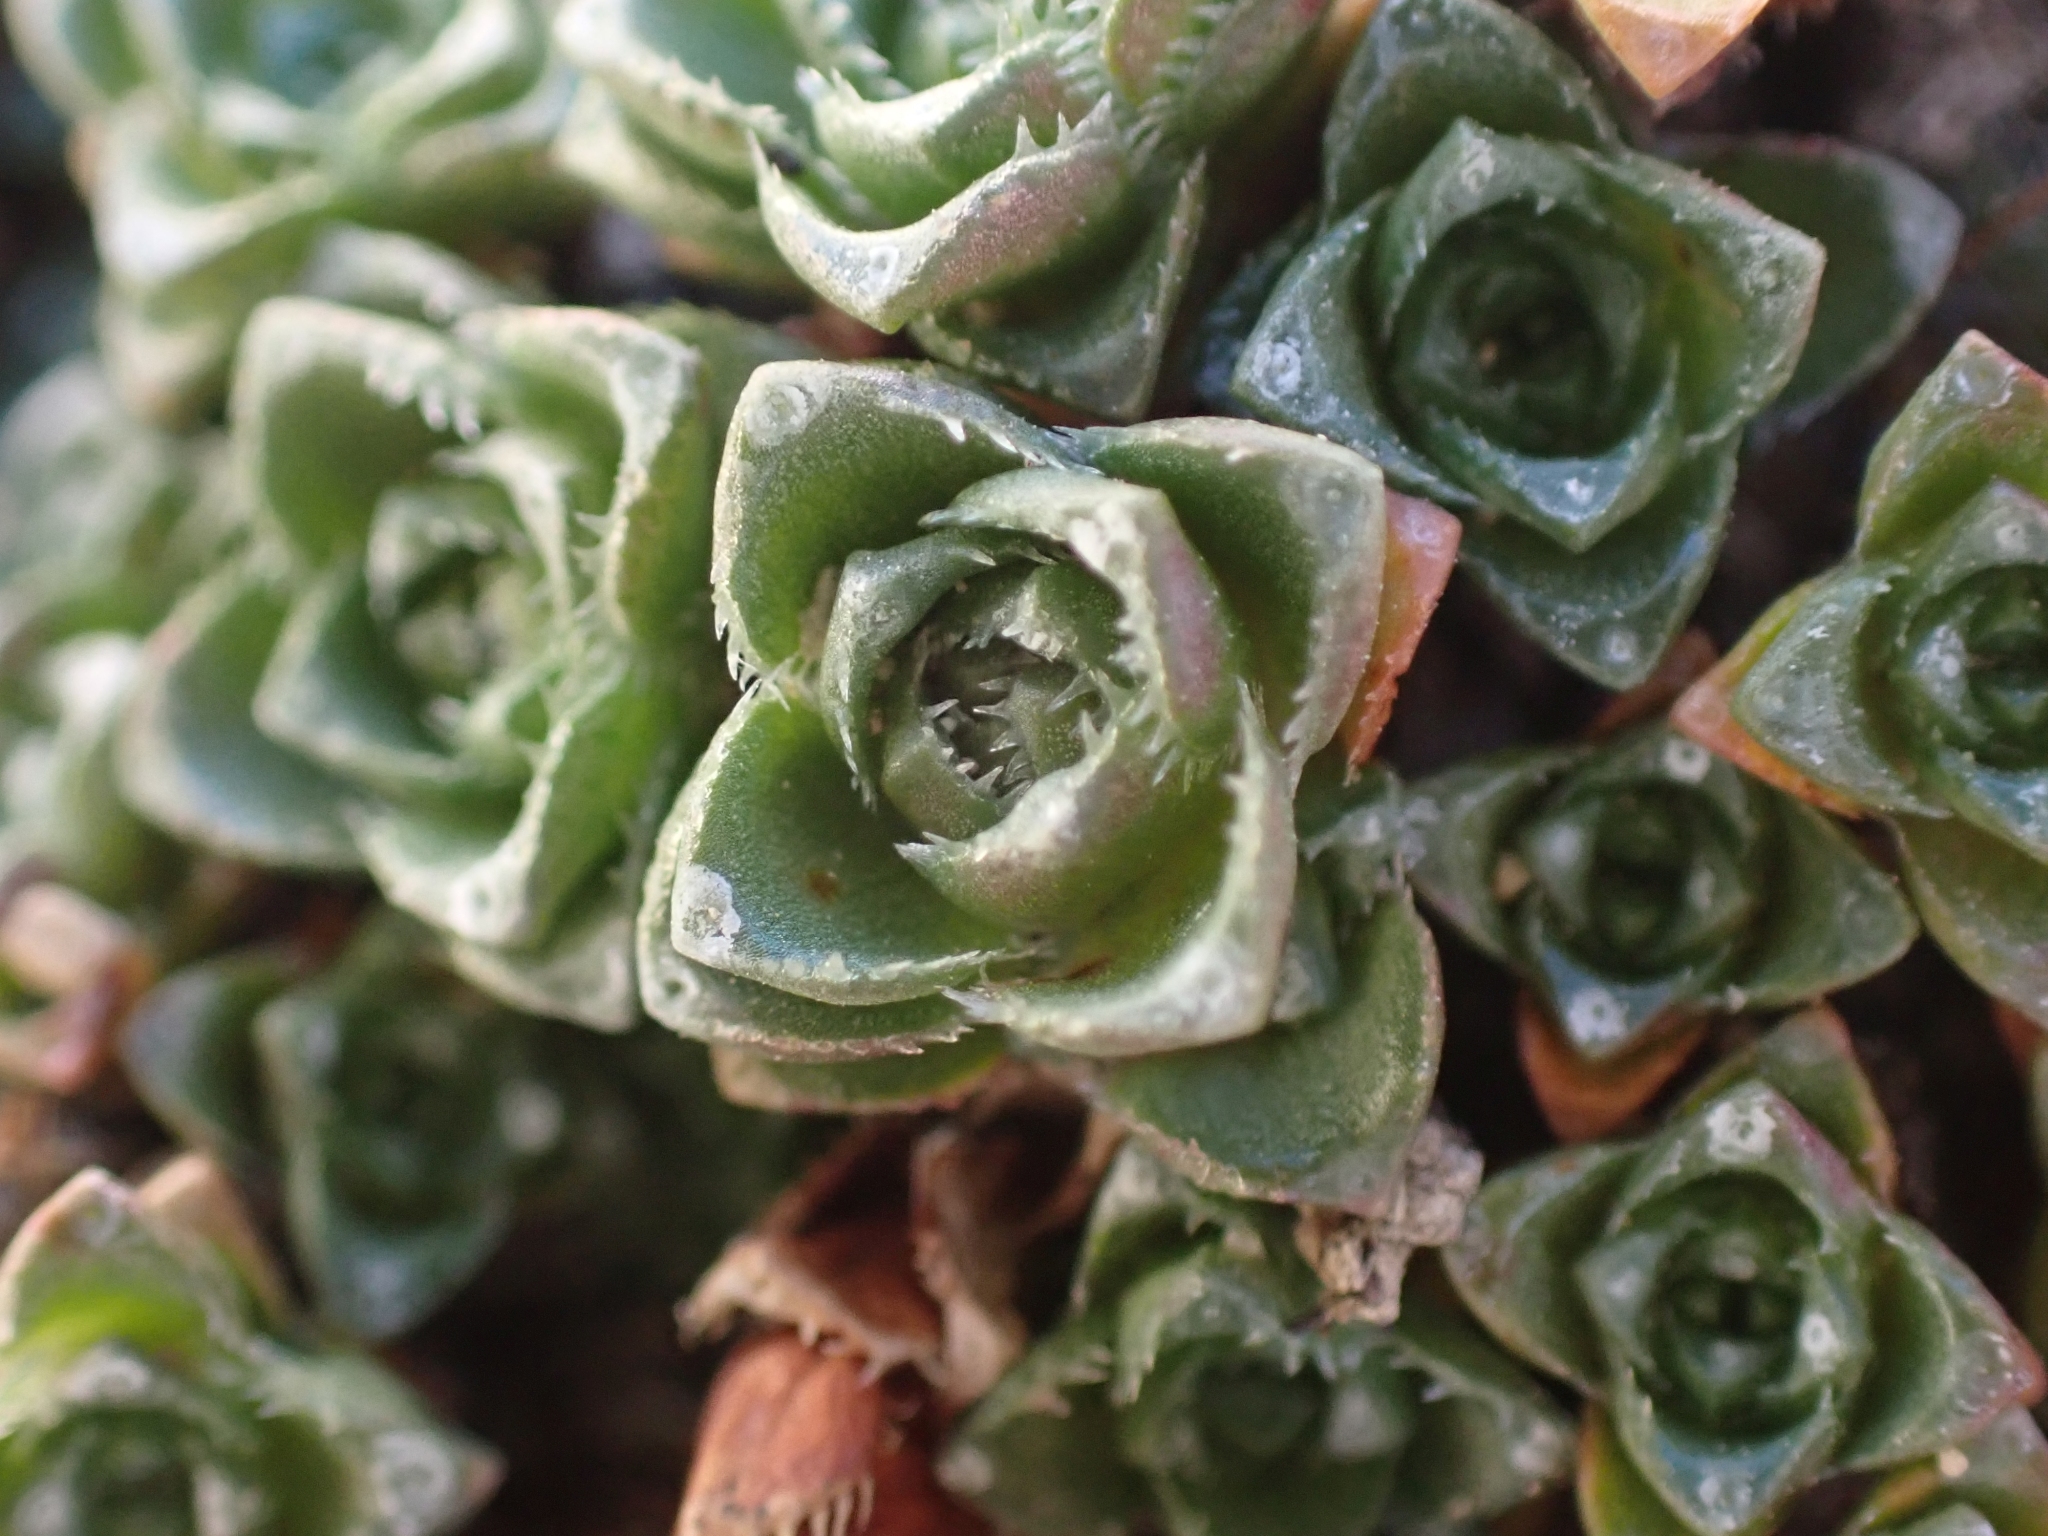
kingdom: Plantae
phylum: Tracheophyta
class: Magnoliopsida
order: Saxifragales
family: Saxifragaceae
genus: Saxifraga
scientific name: Saxifraga oppositifolia
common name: Purple saxifrage
